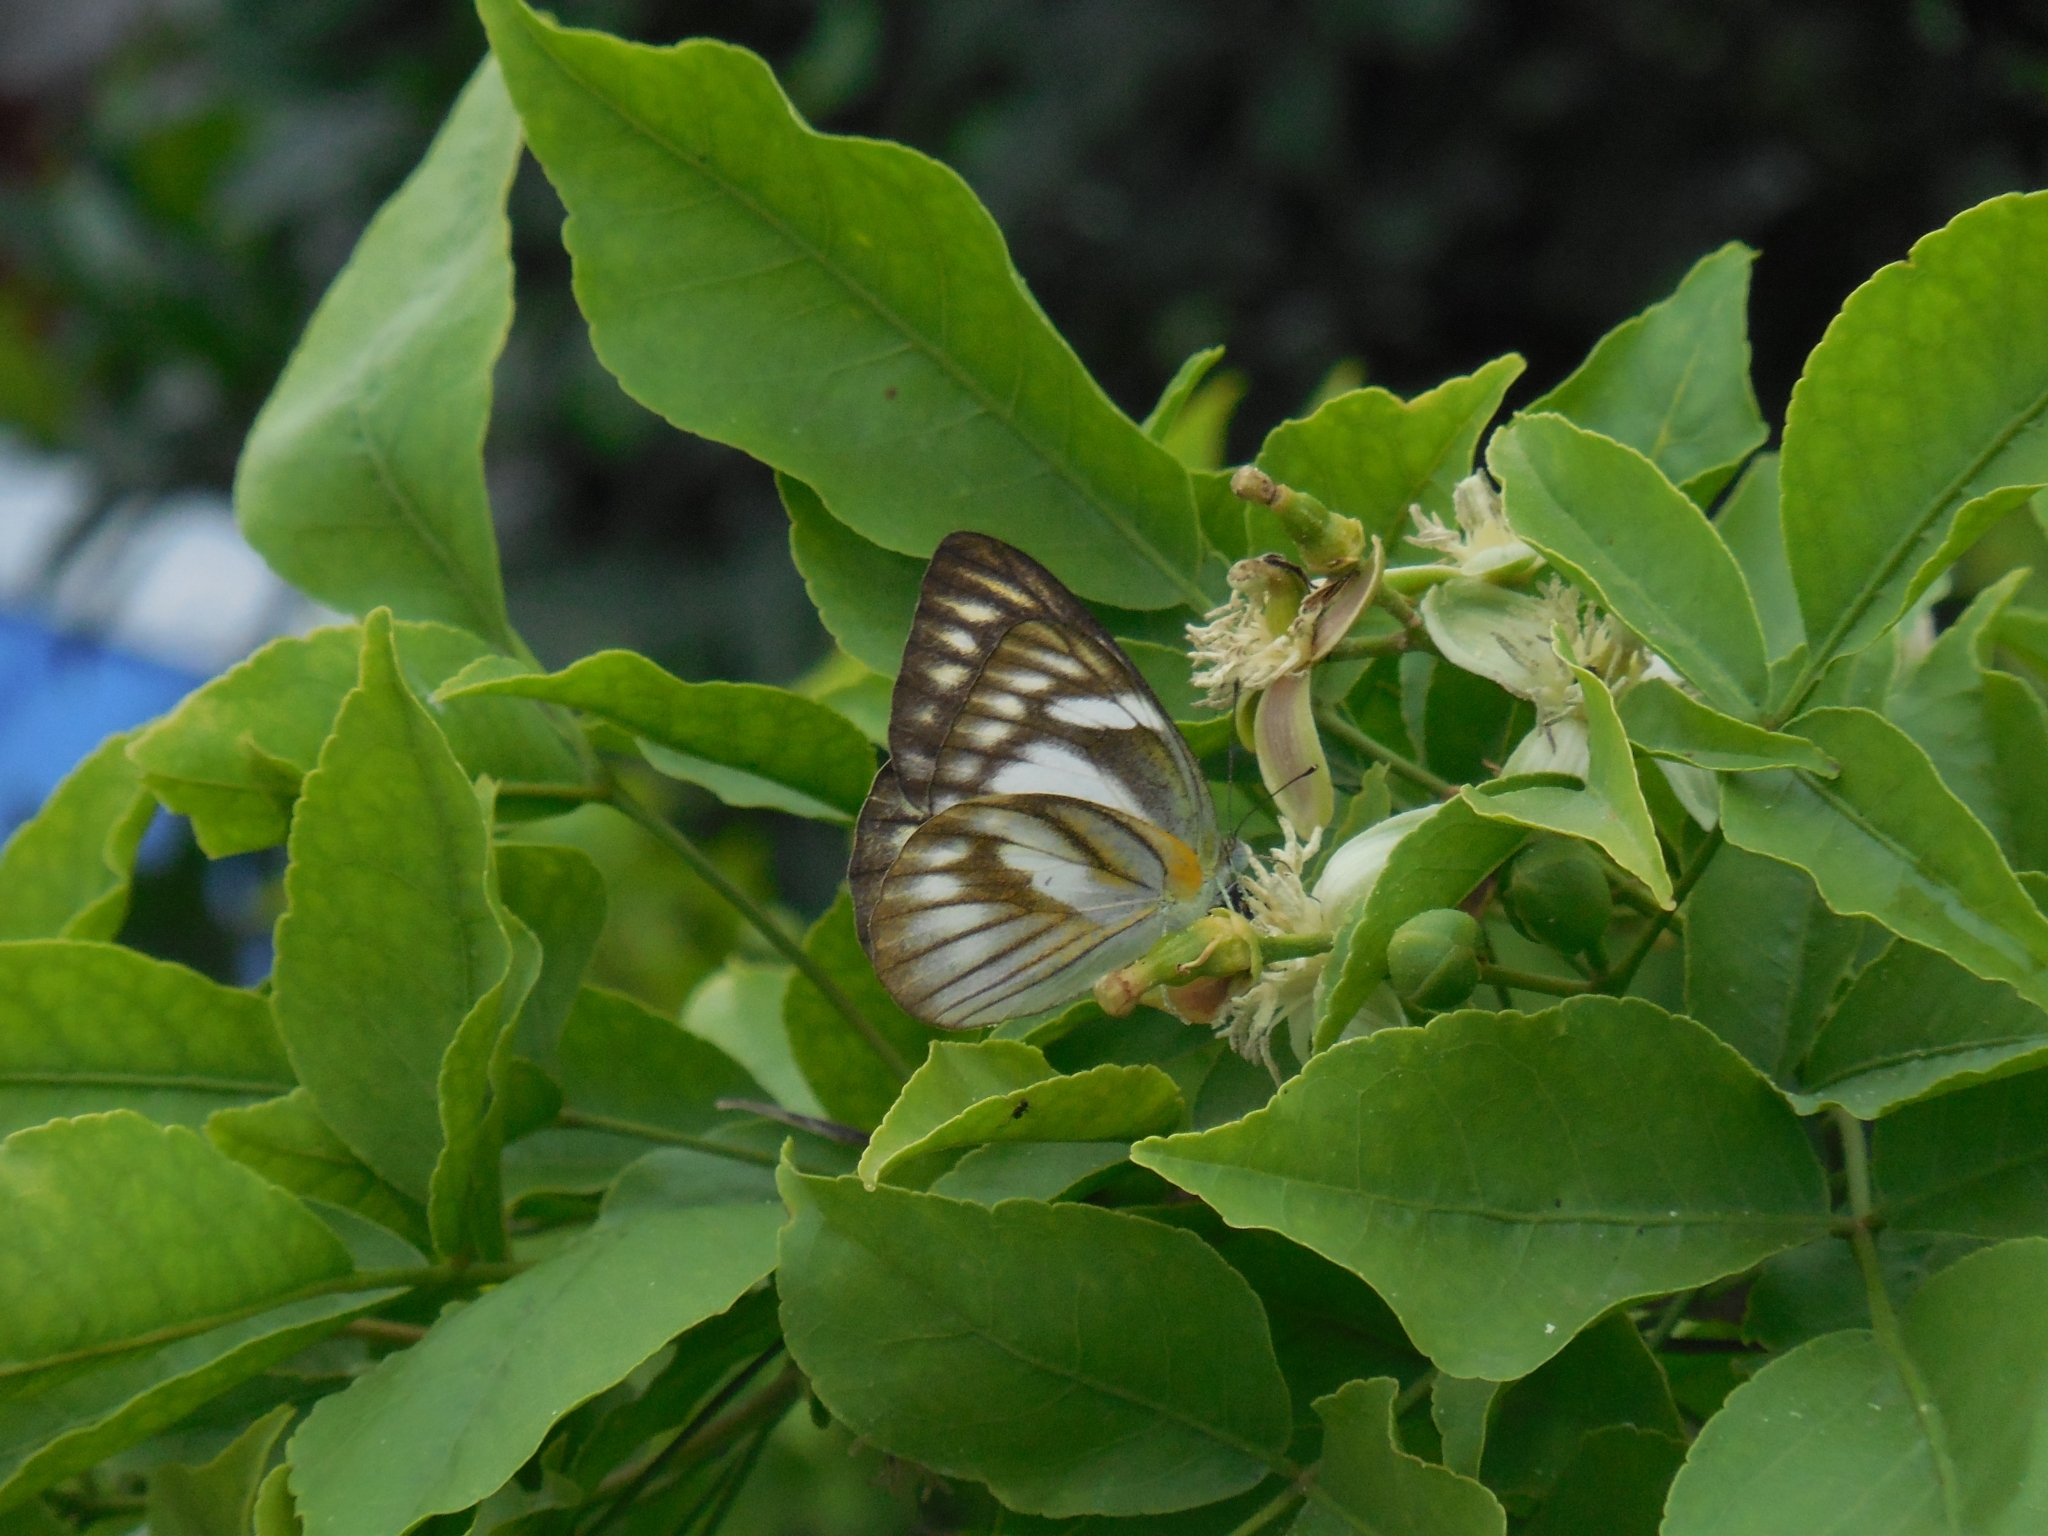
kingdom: Animalia
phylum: Arthropoda
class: Insecta
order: Lepidoptera
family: Pieridae
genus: Appias
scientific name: Appias libythea
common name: Striped albatross
